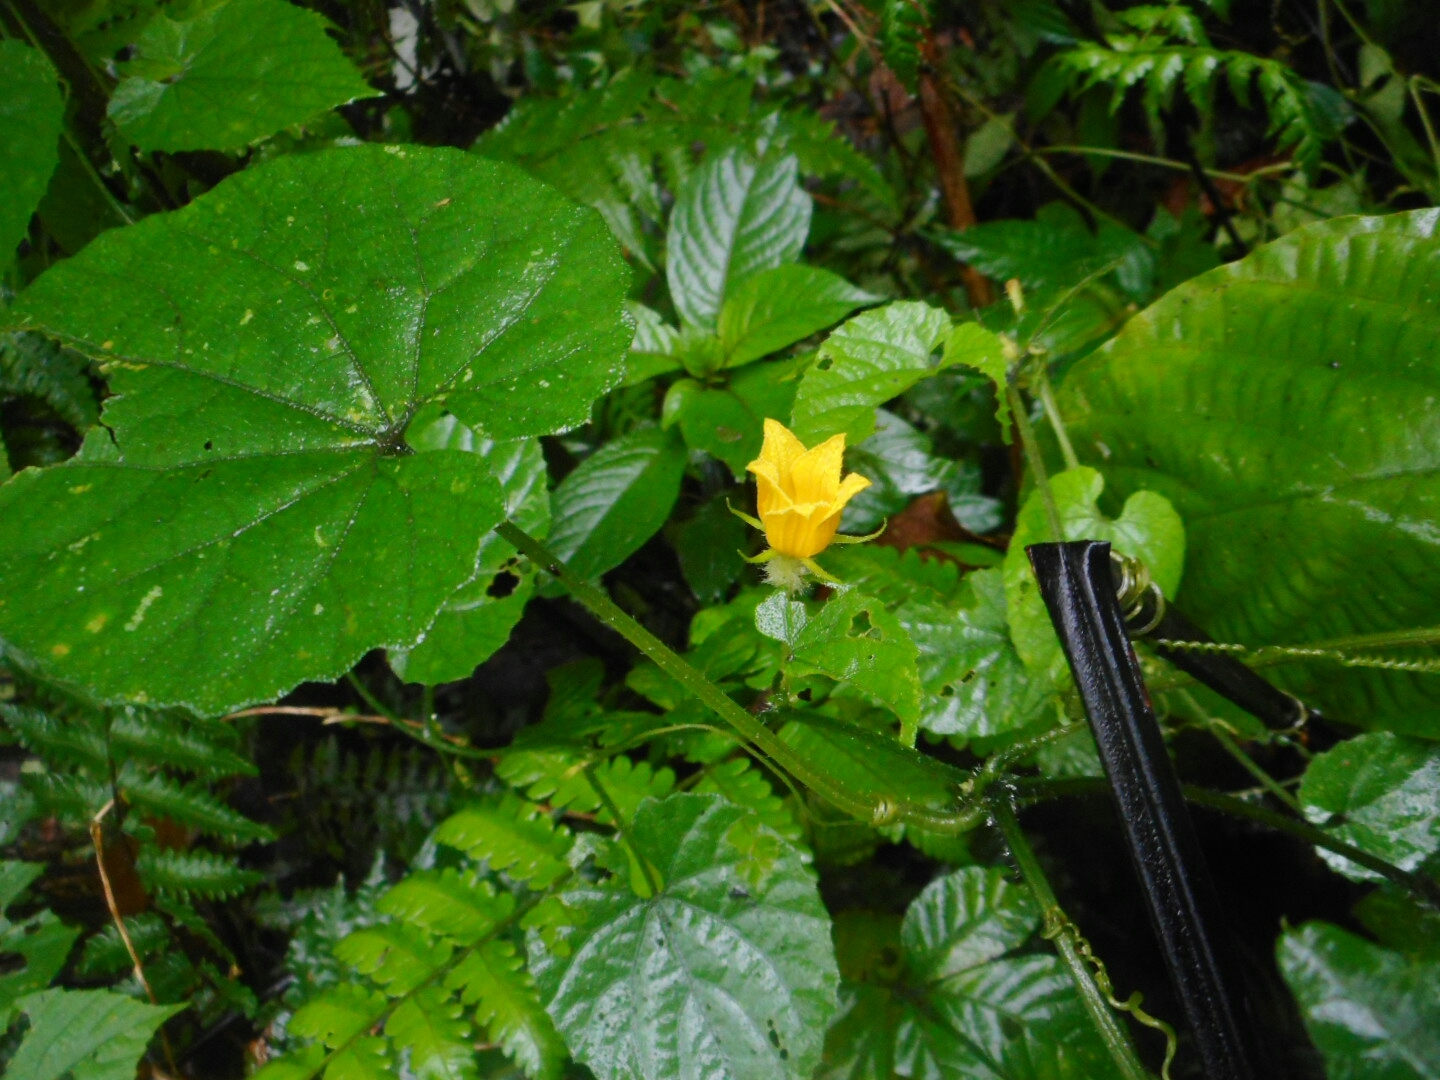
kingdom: Plantae
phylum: Tracheophyta
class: Magnoliopsida
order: Cucurbitales
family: Cucurbitaceae
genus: Thladiantha
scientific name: Thladiantha angustisepala
